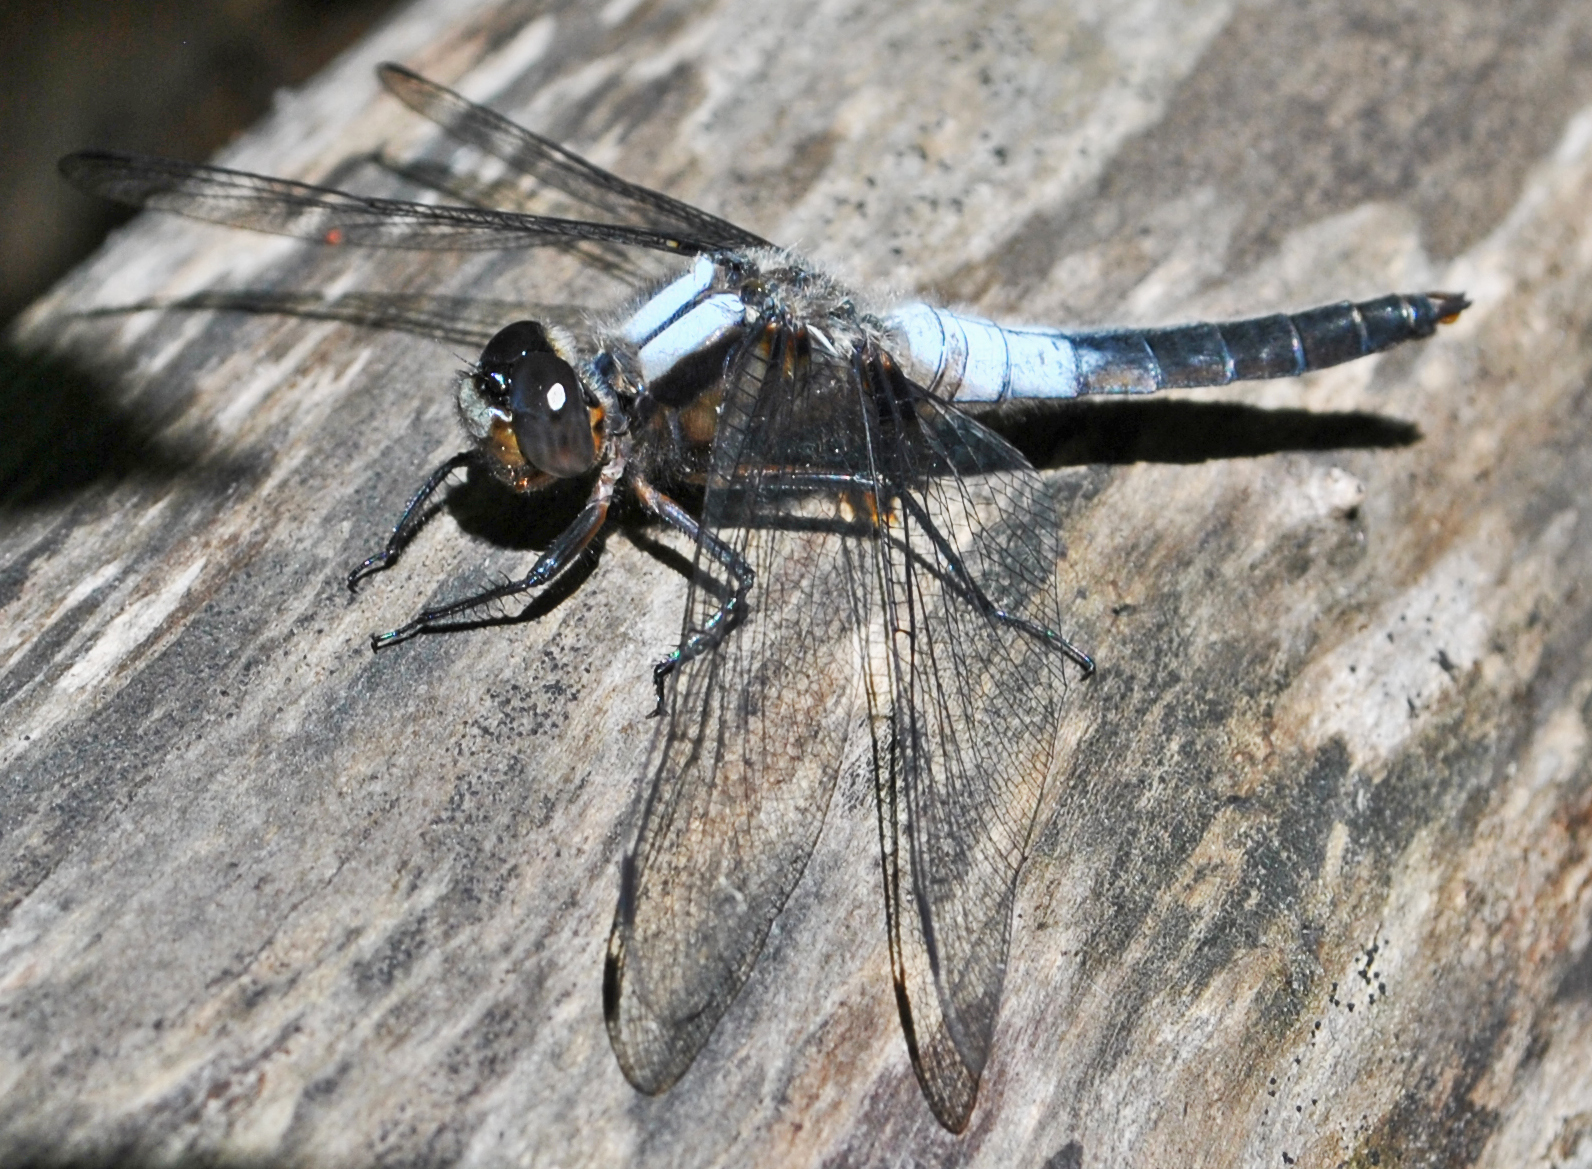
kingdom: Animalia
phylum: Arthropoda
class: Insecta
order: Odonata
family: Libellulidae
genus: Ladona
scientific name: Ladona julia
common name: Chalk-fronted corporal
